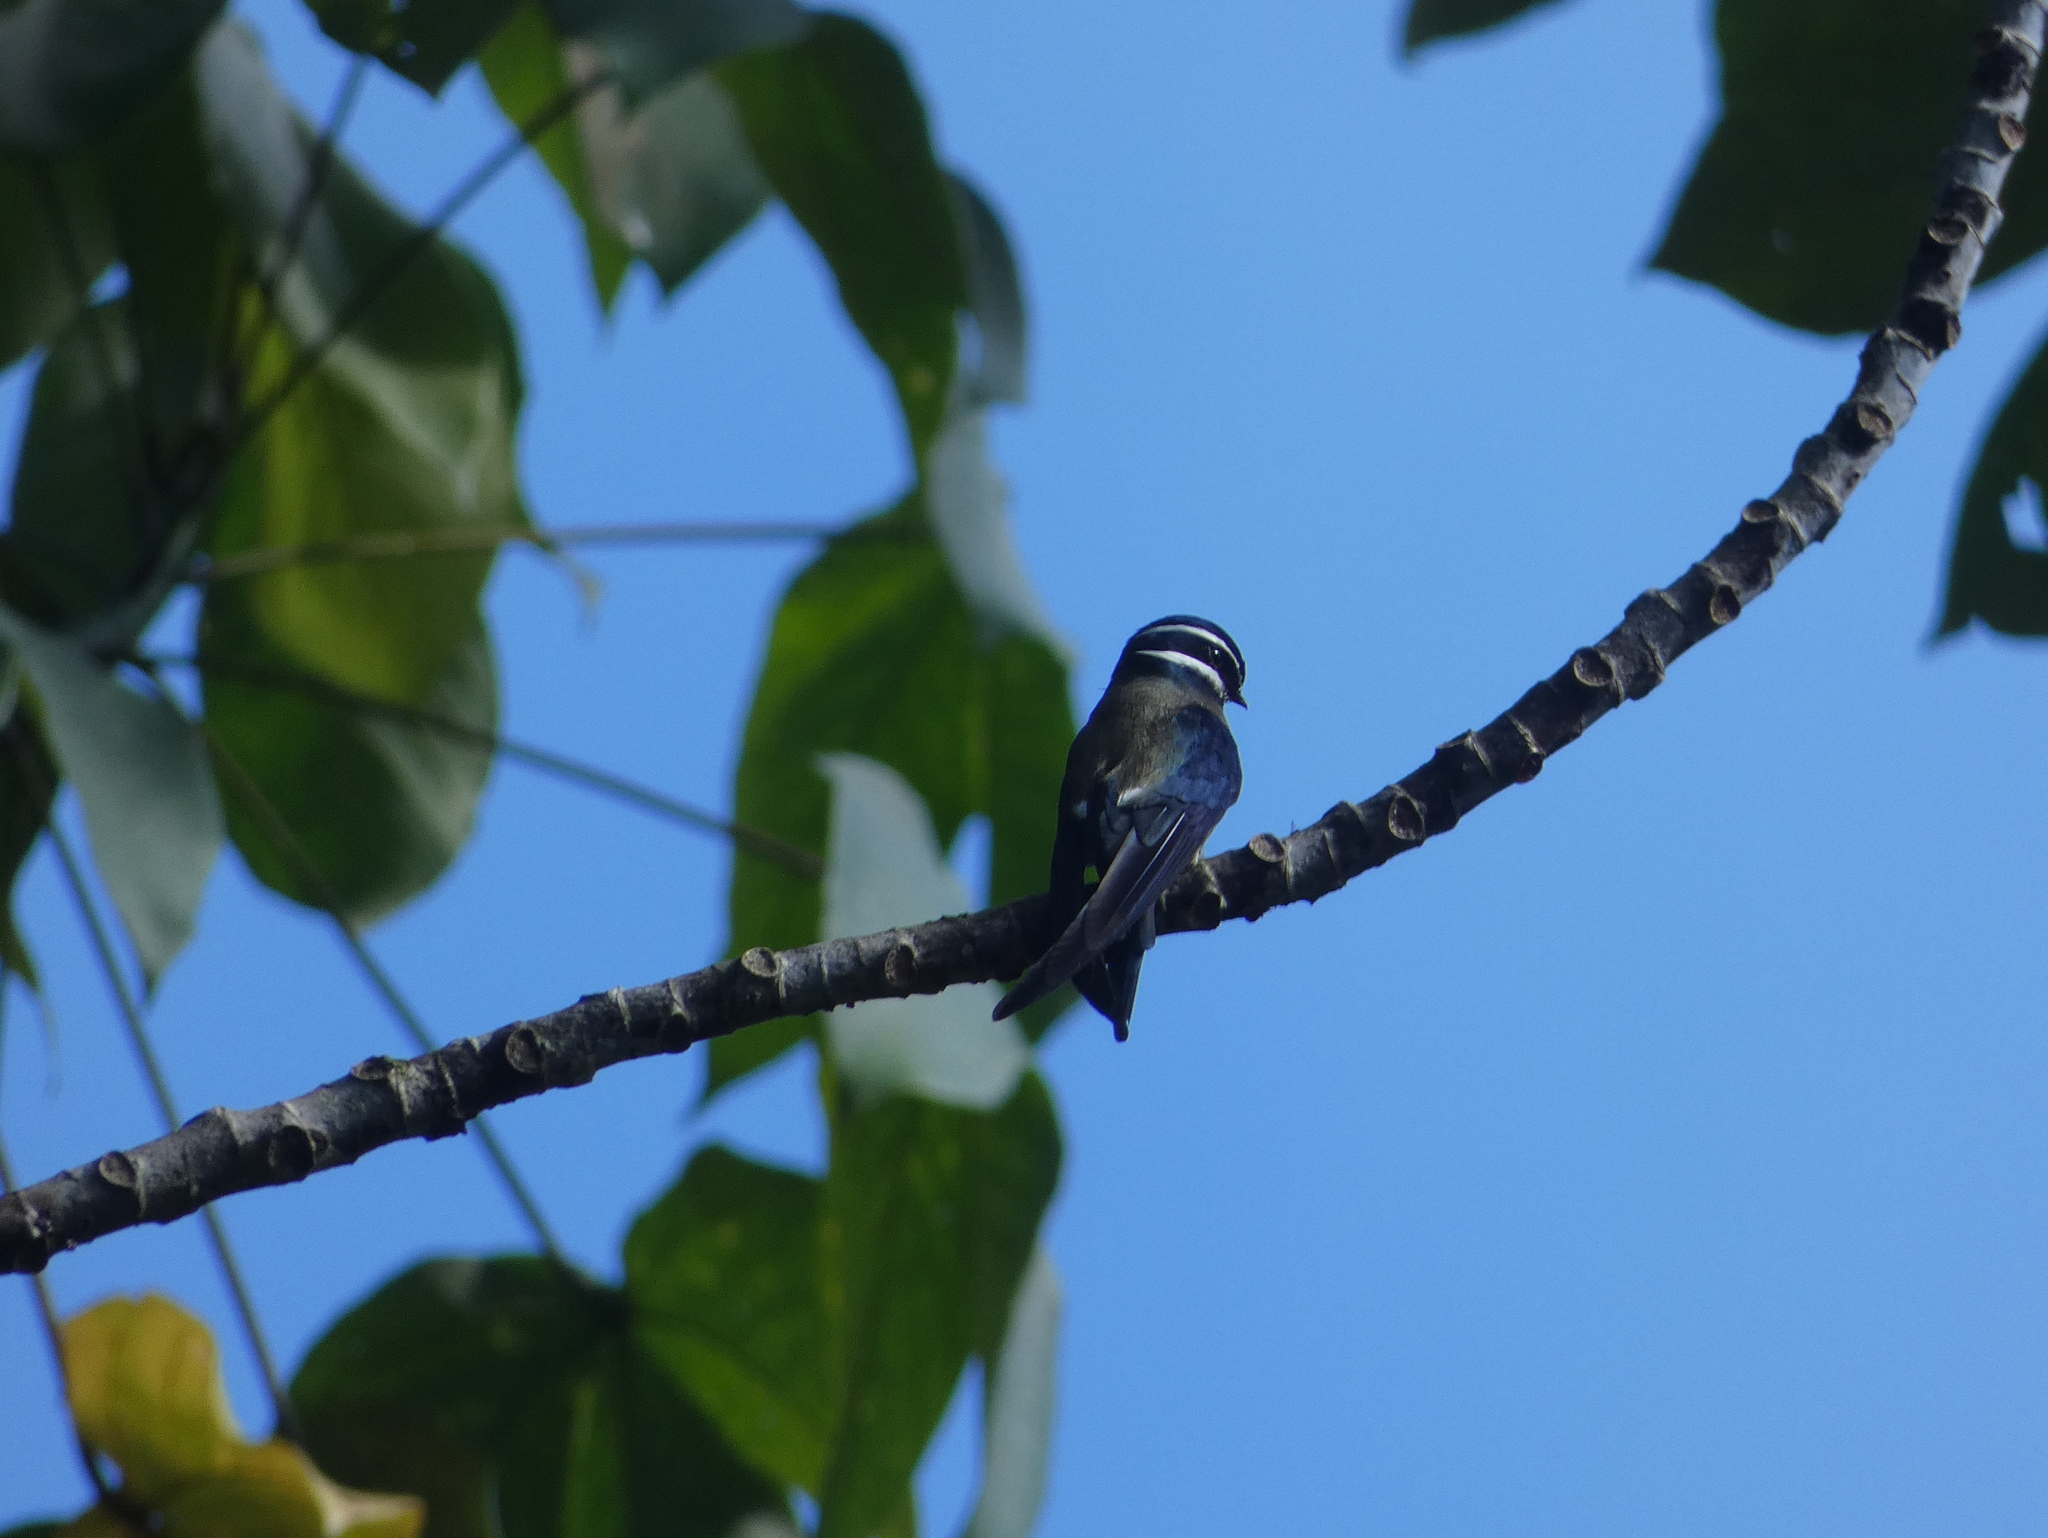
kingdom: Animalia
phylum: Chordata
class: Aves
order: Apodiformes
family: Hemiprocnidae
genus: Hemiprocne
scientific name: Hemiprocne comata
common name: Whiskered treeswift
